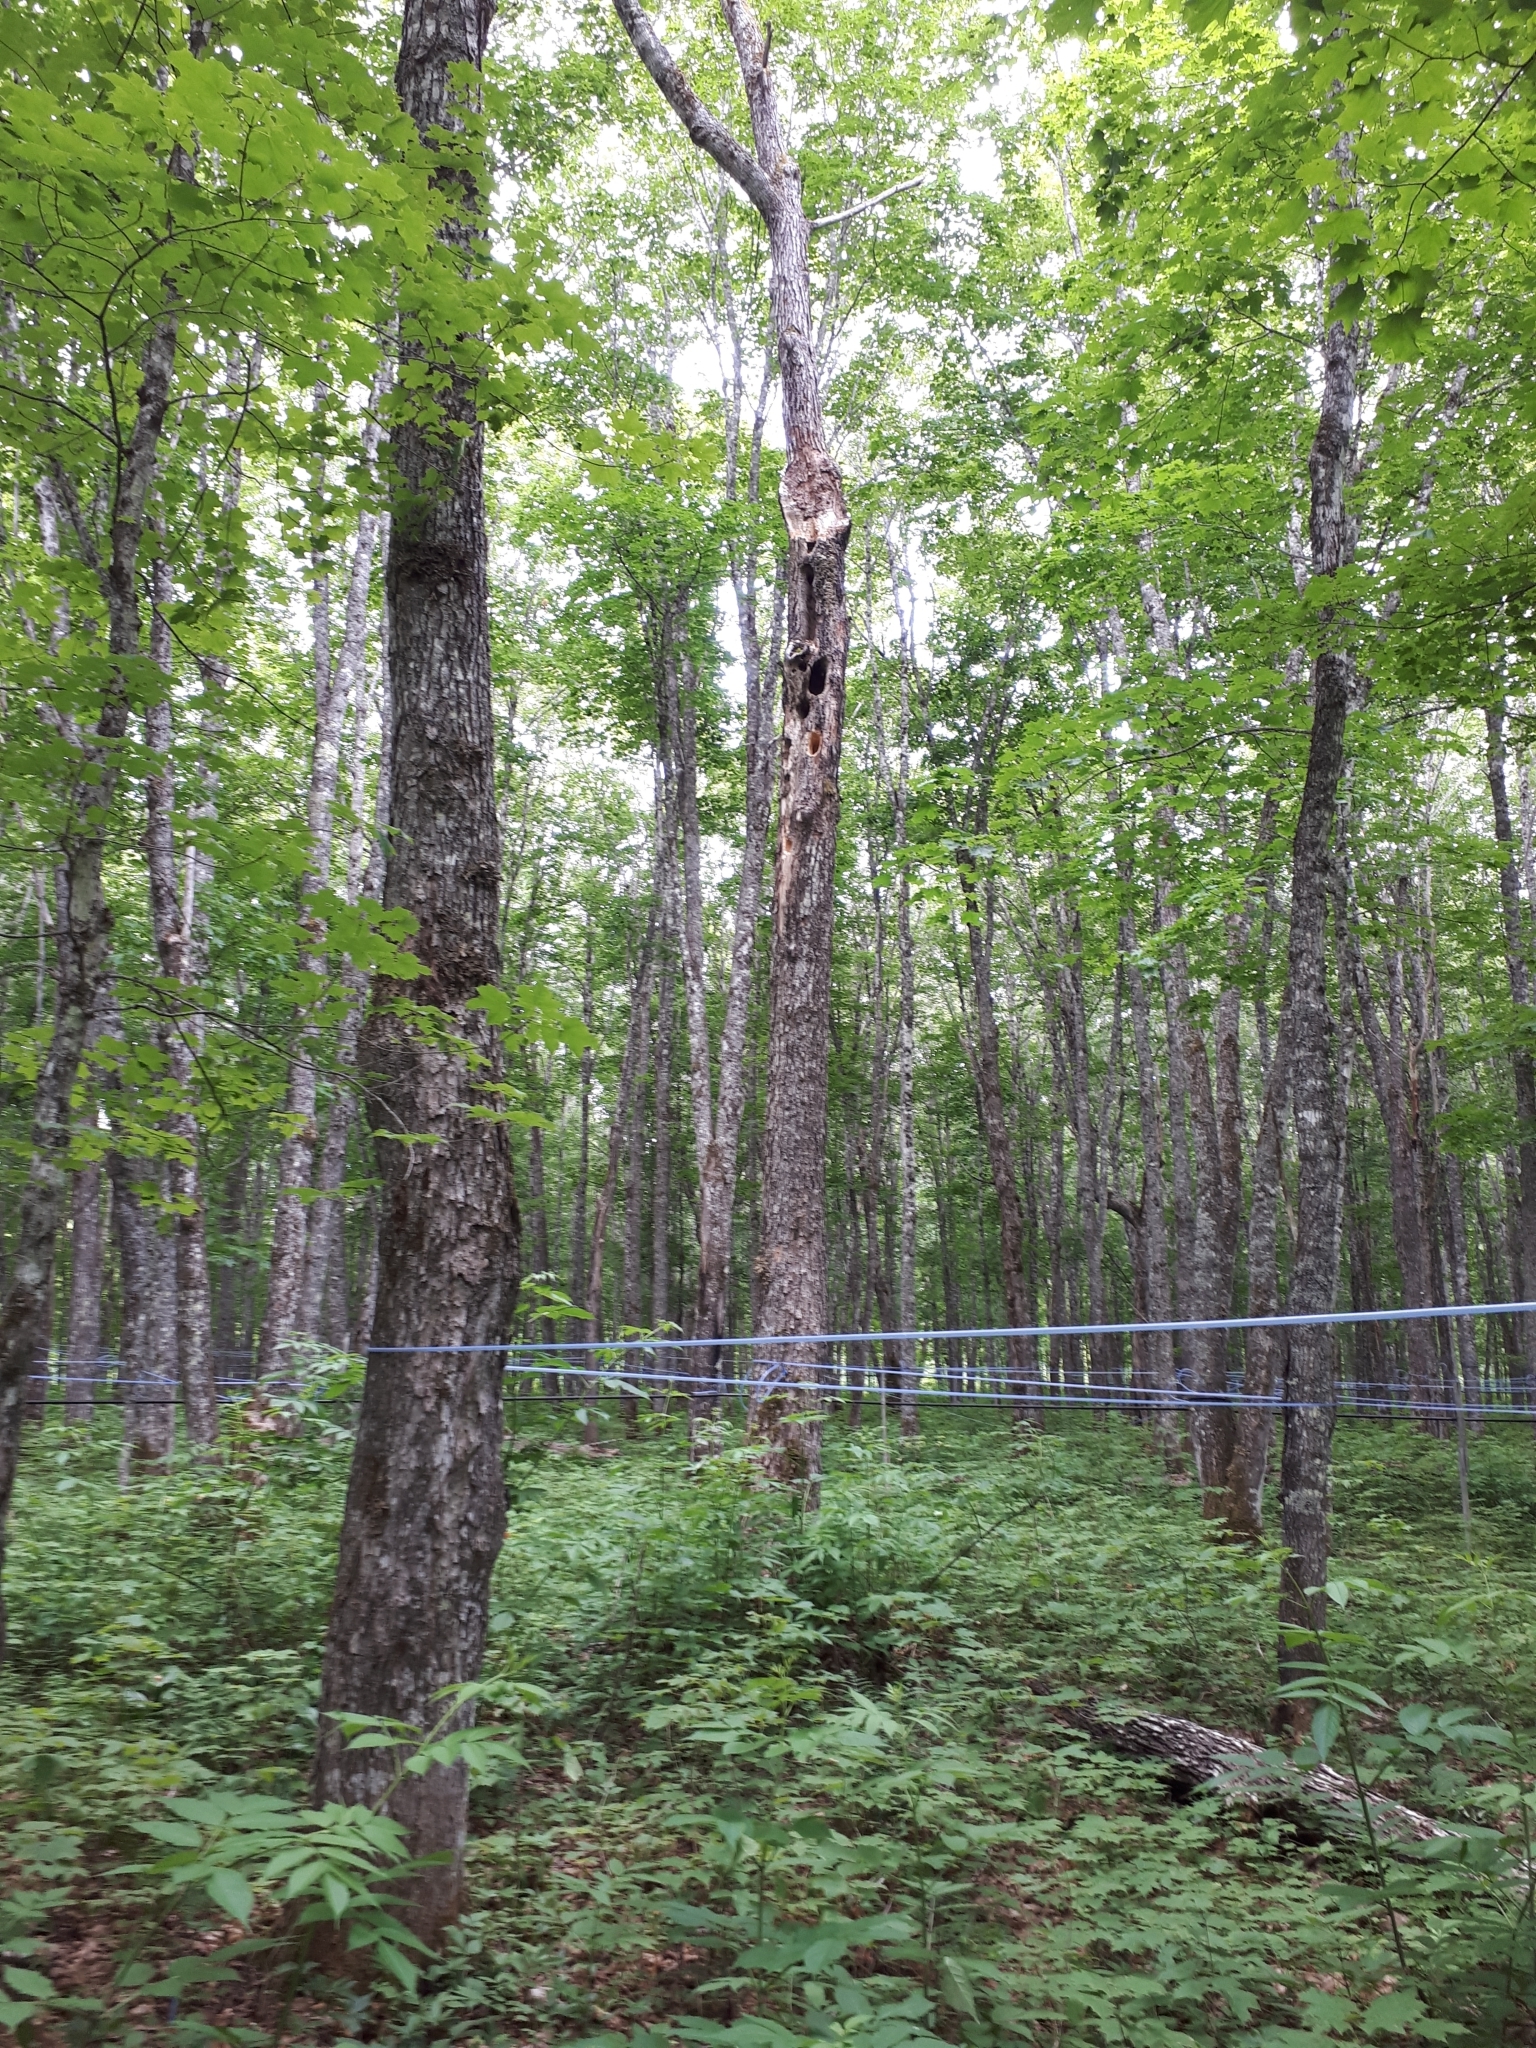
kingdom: Plantae
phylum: Tracheophyta
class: Magnoliopsida
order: Sapindales
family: Sapindaceae
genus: Acer
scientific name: Acer saccharum
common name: Sugar maple
